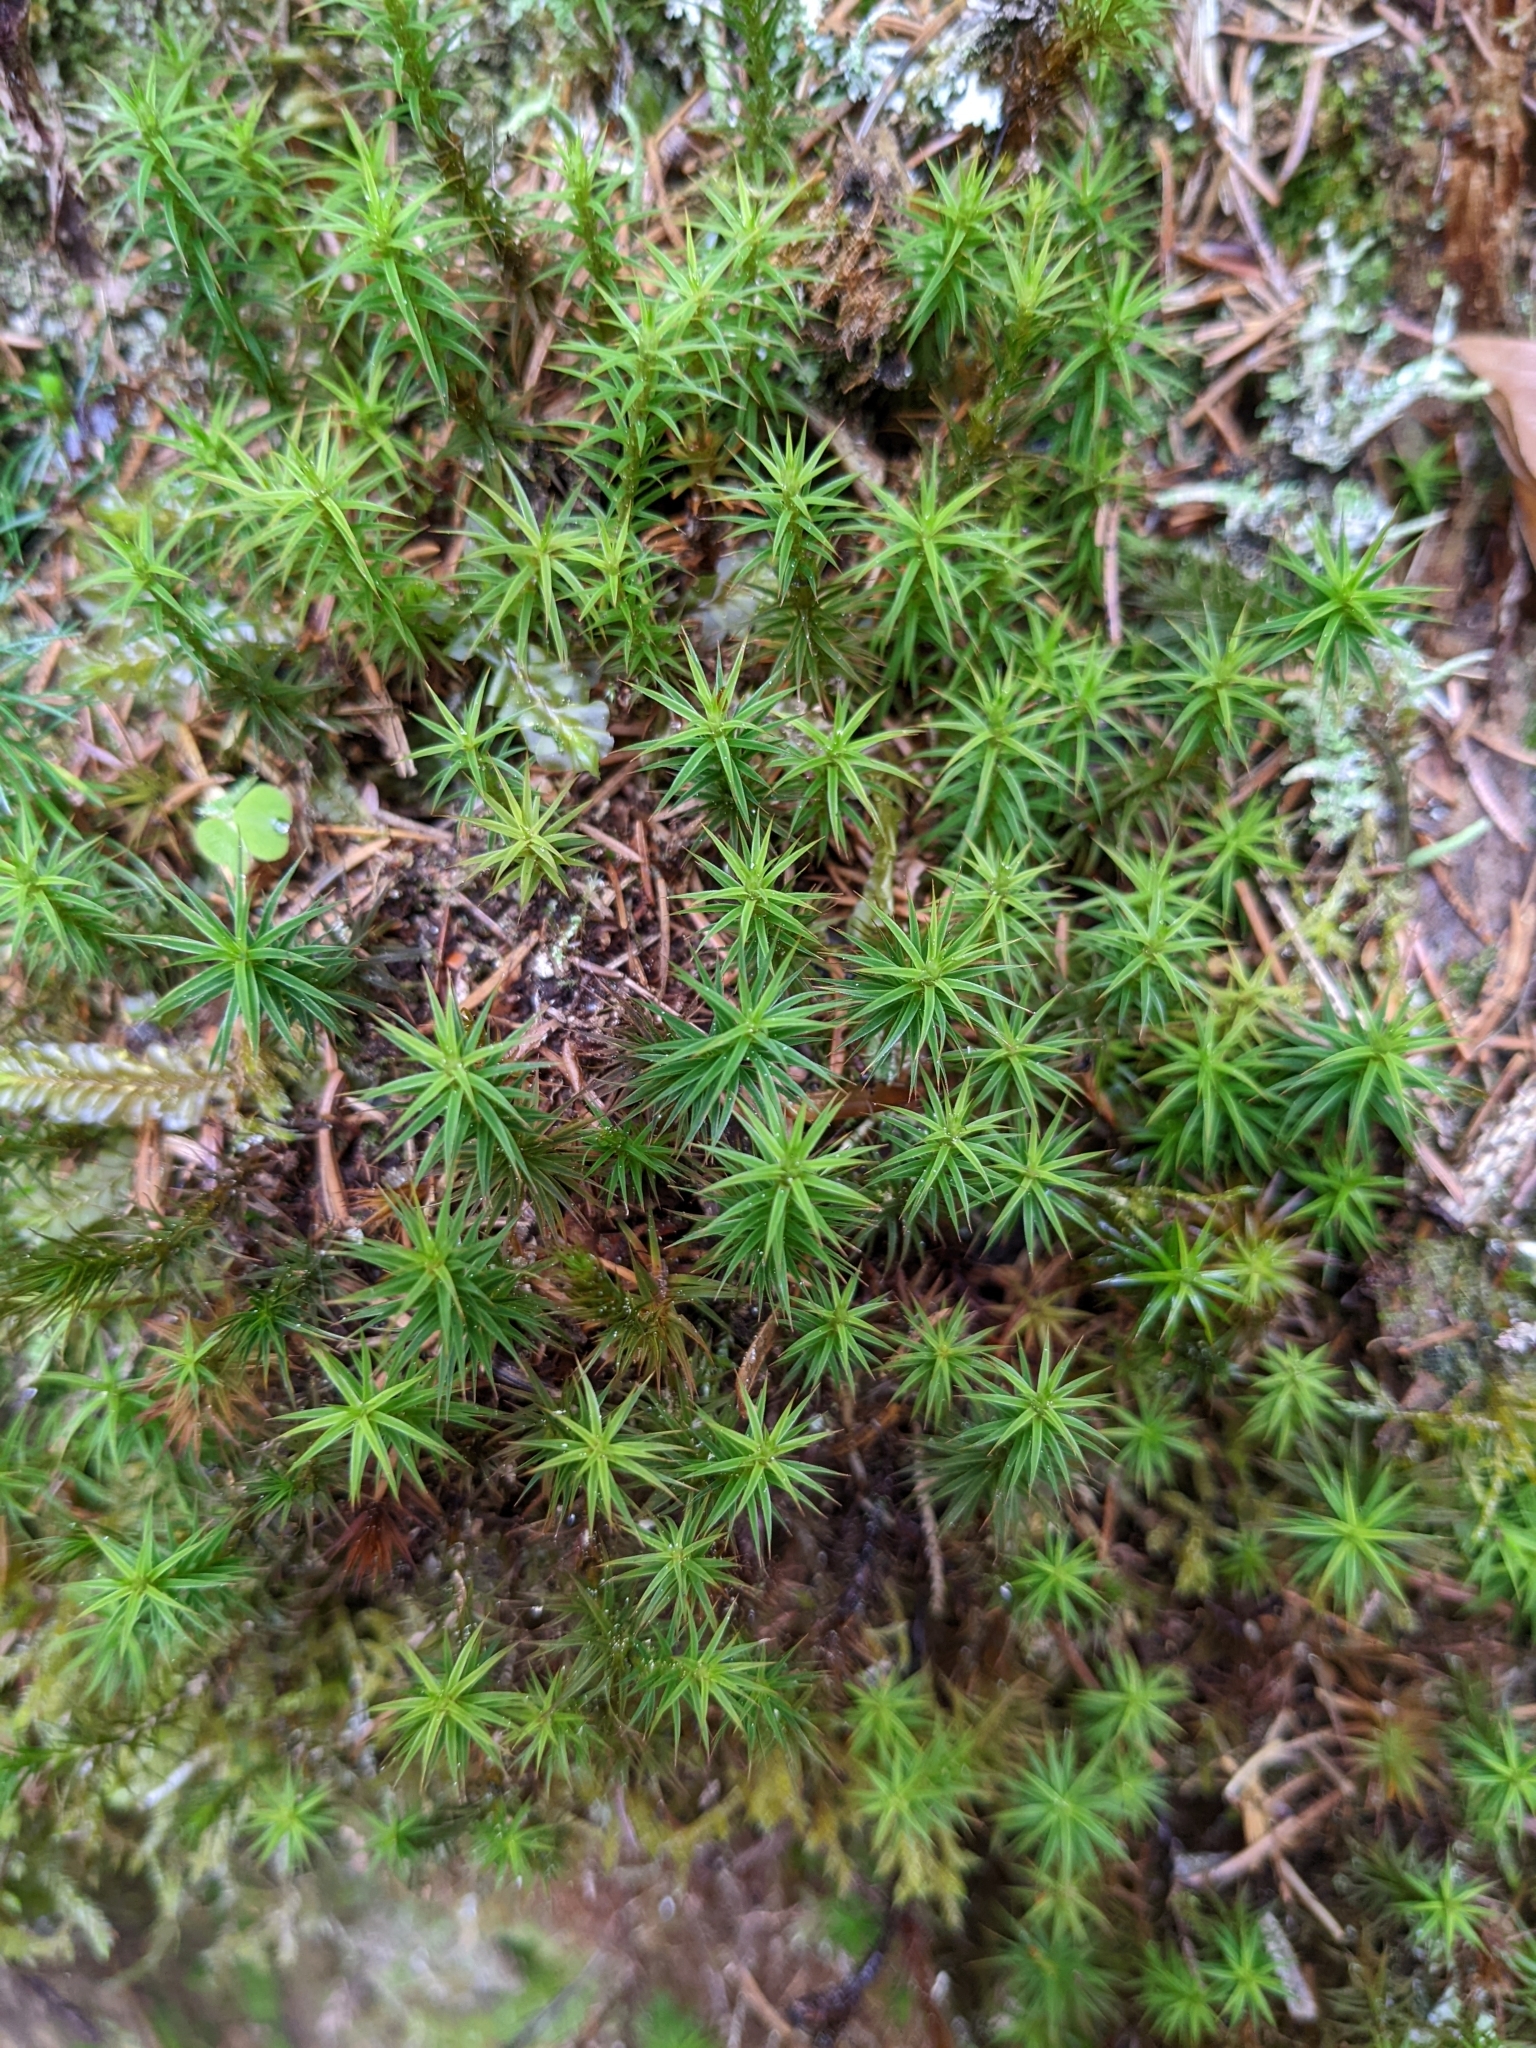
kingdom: Plantae
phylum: Bryophyta
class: Polytrichopsida
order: Polytrichales
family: Polytrichaceae
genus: Polytrichum
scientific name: Polytrichum formosum
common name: Bank haircap moss
